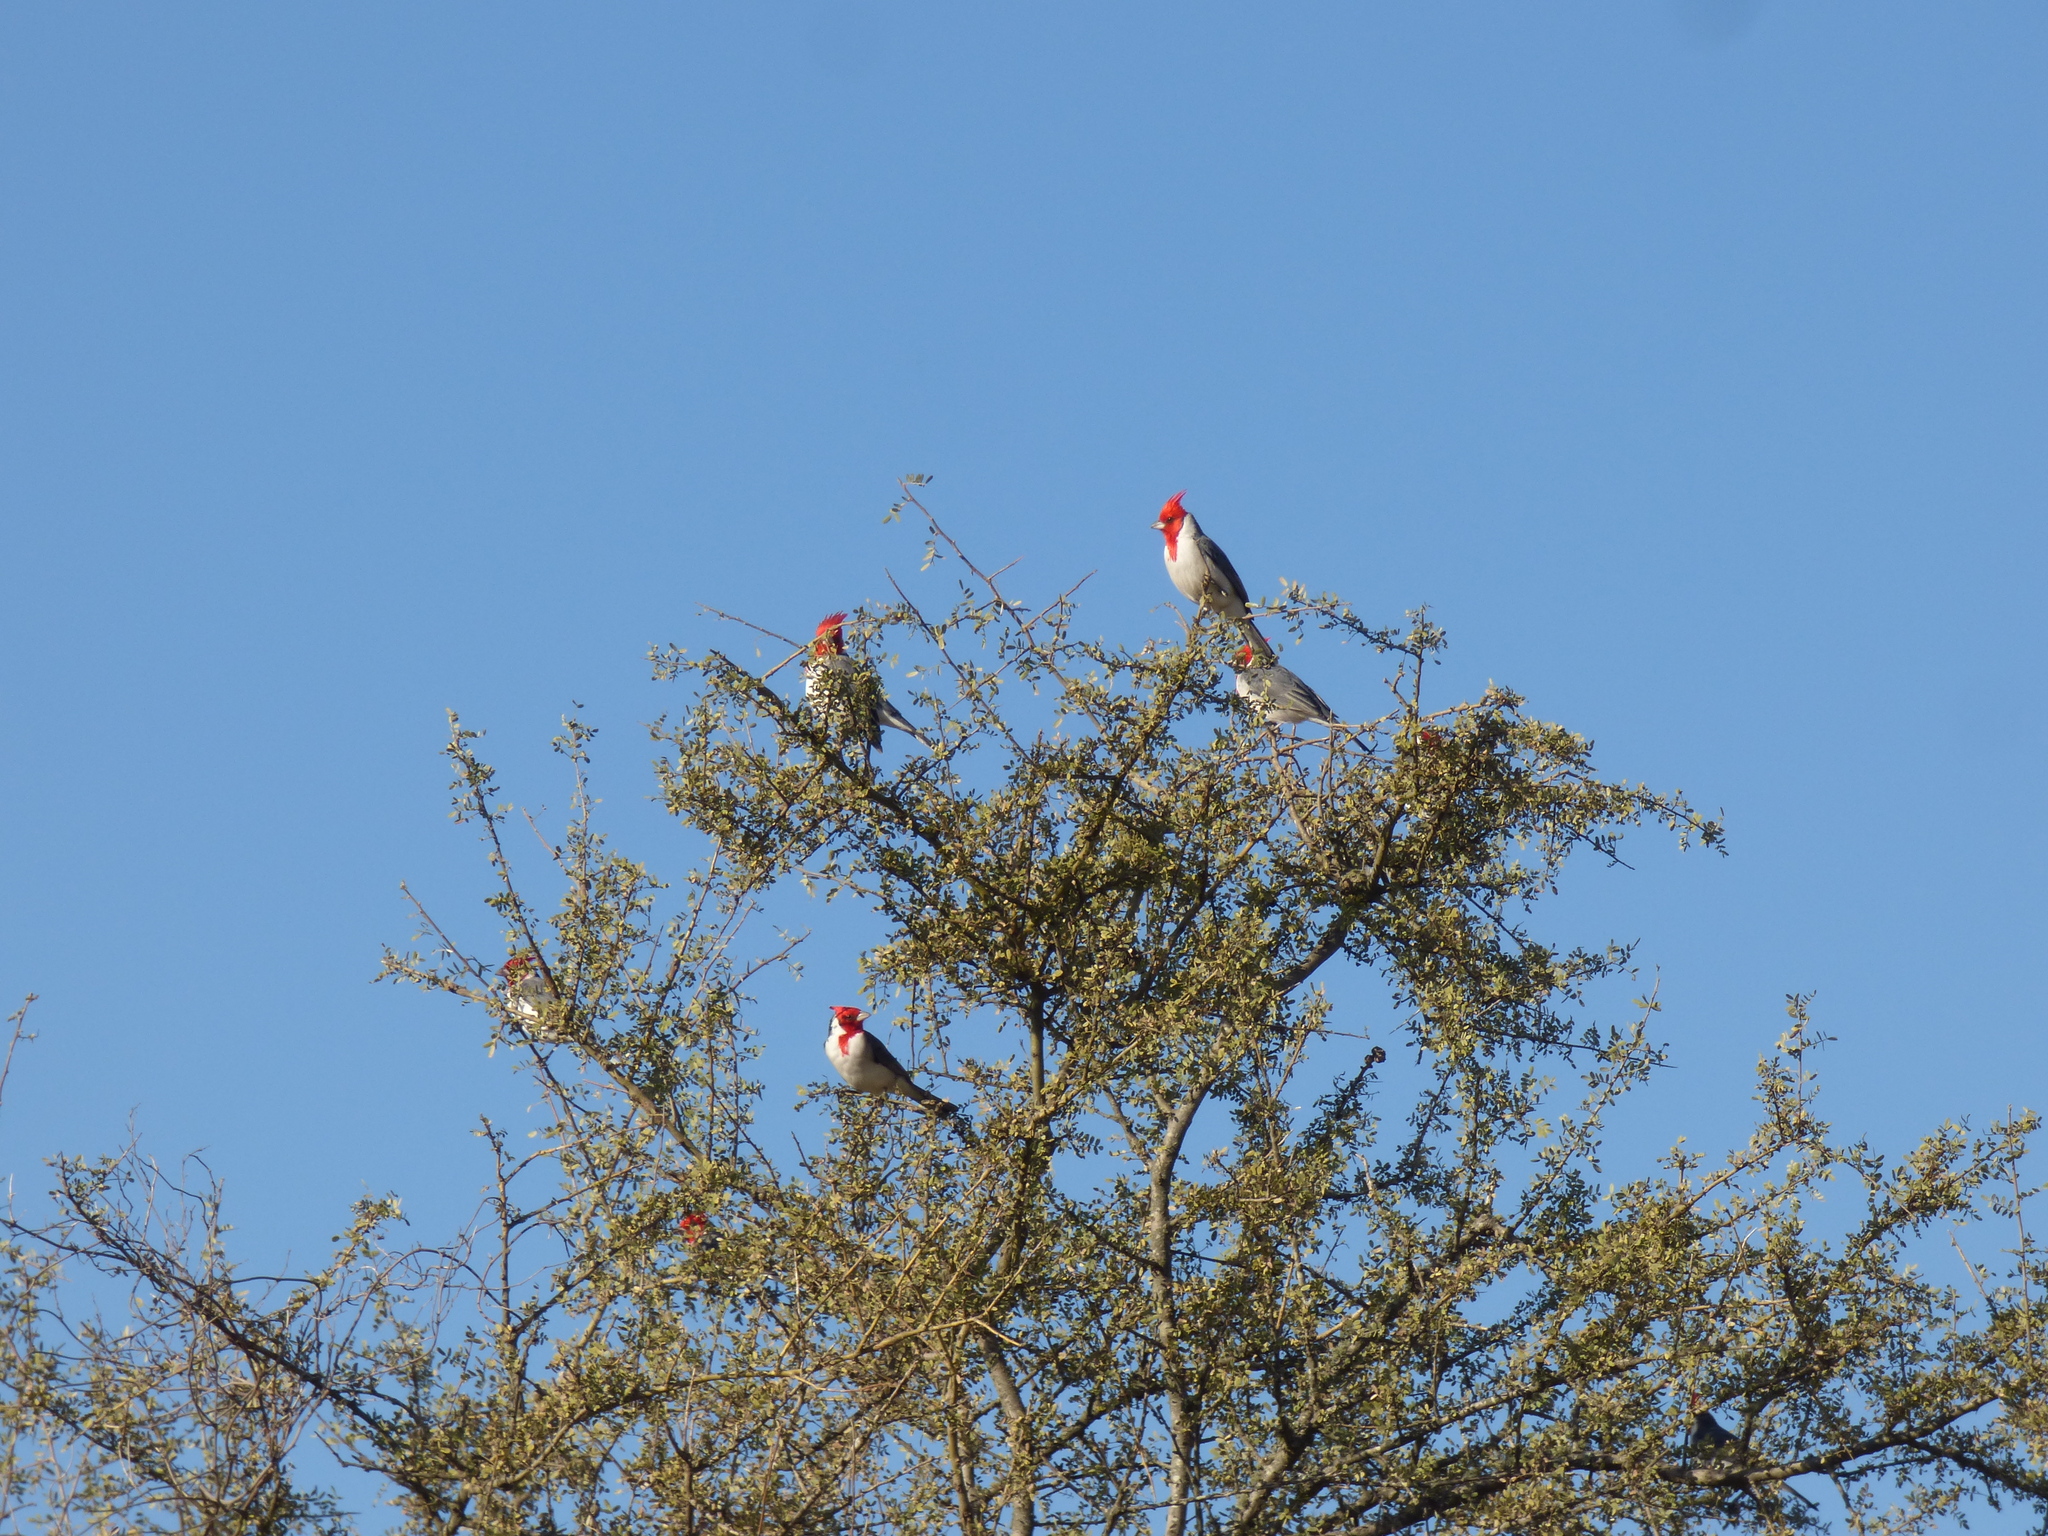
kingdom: Animalia
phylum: Chordata
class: Aves
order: Passeriformes
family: Thraupidae
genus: Paroaria
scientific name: Paroaria coronata
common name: Red-crested cardinal
